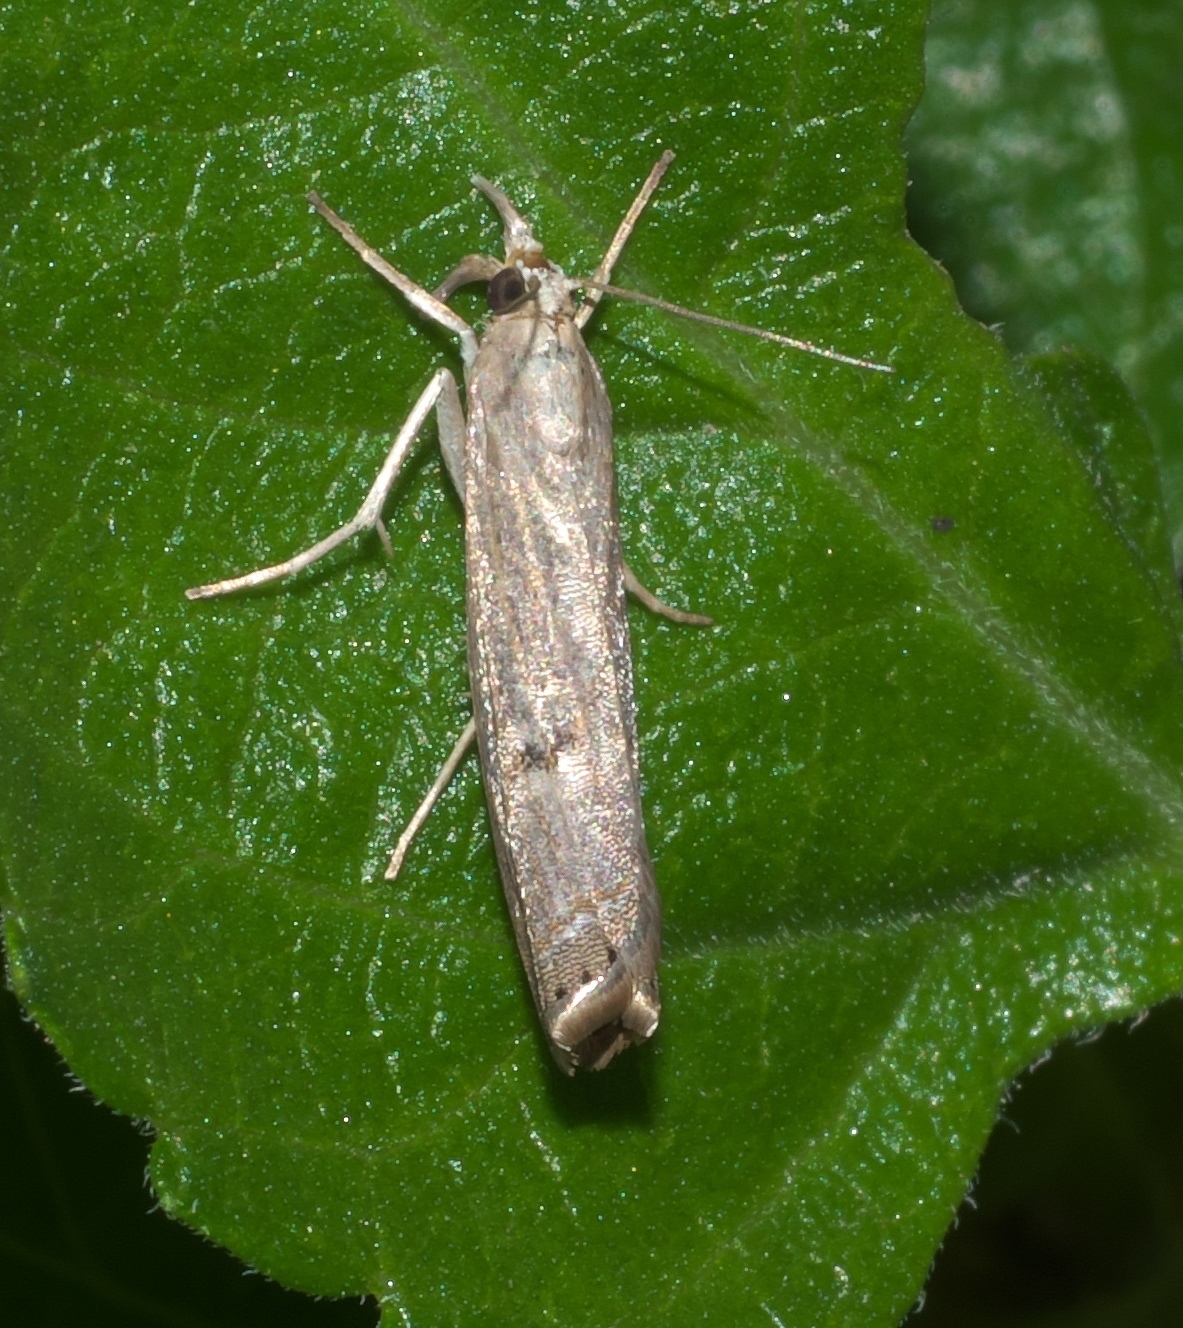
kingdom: Animalia
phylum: Arthropoda
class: Insecta
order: Lepidoptera
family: Crambidae
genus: Parapediasia
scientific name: Parapediasia teterellus
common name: Bluegrass webworm moth
